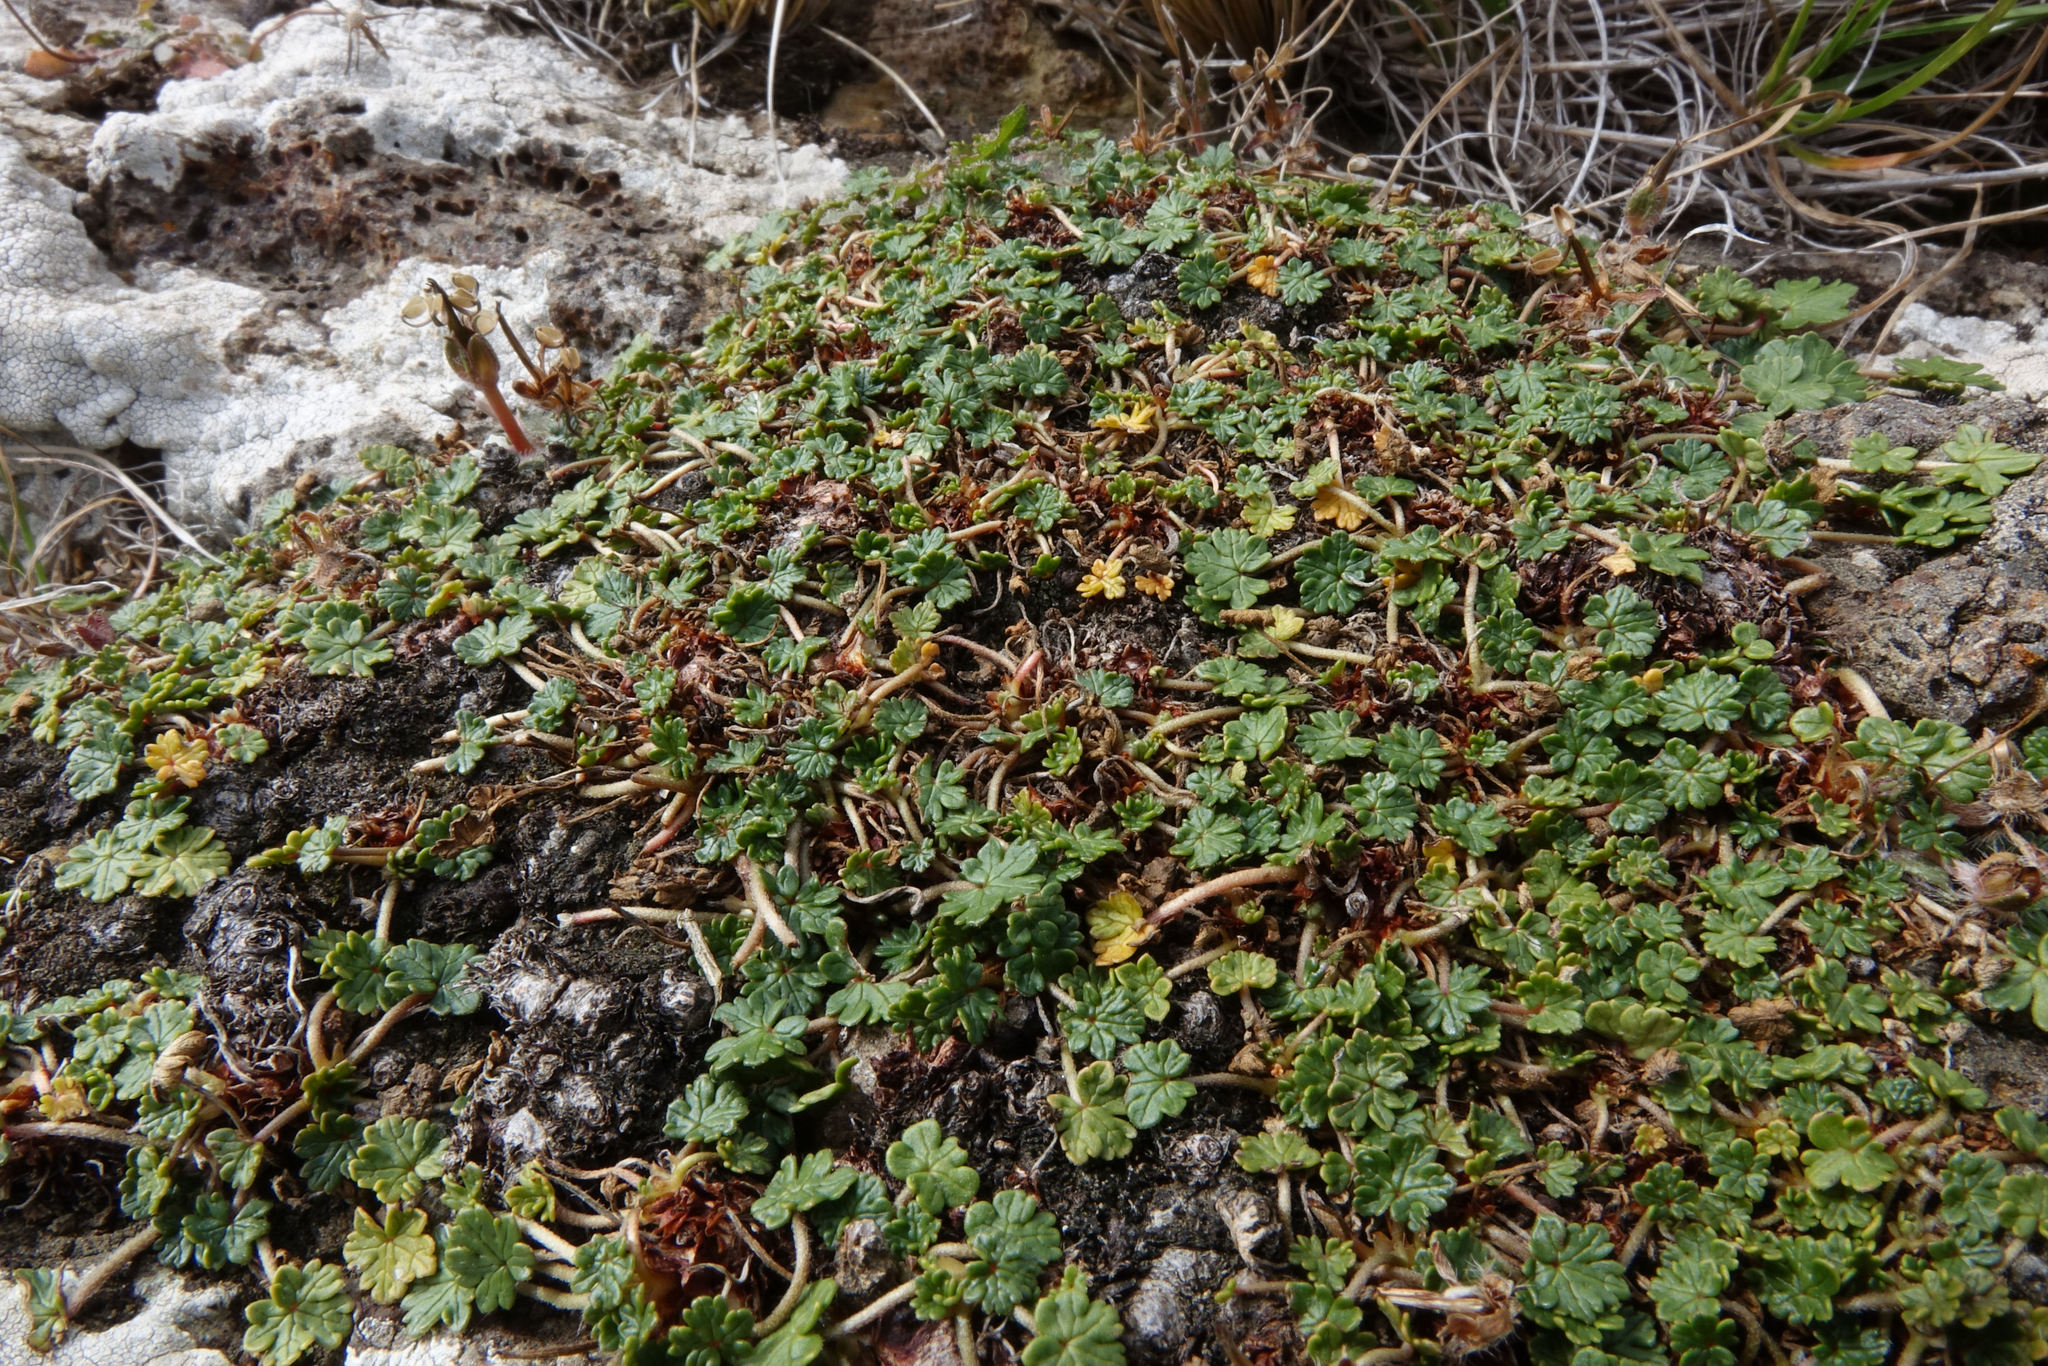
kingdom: Plantae
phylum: Tracheophyta
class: Magnoliopsida
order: Geraniales
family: Geraniaceae
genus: Geranium
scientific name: Geranium brevicaule
